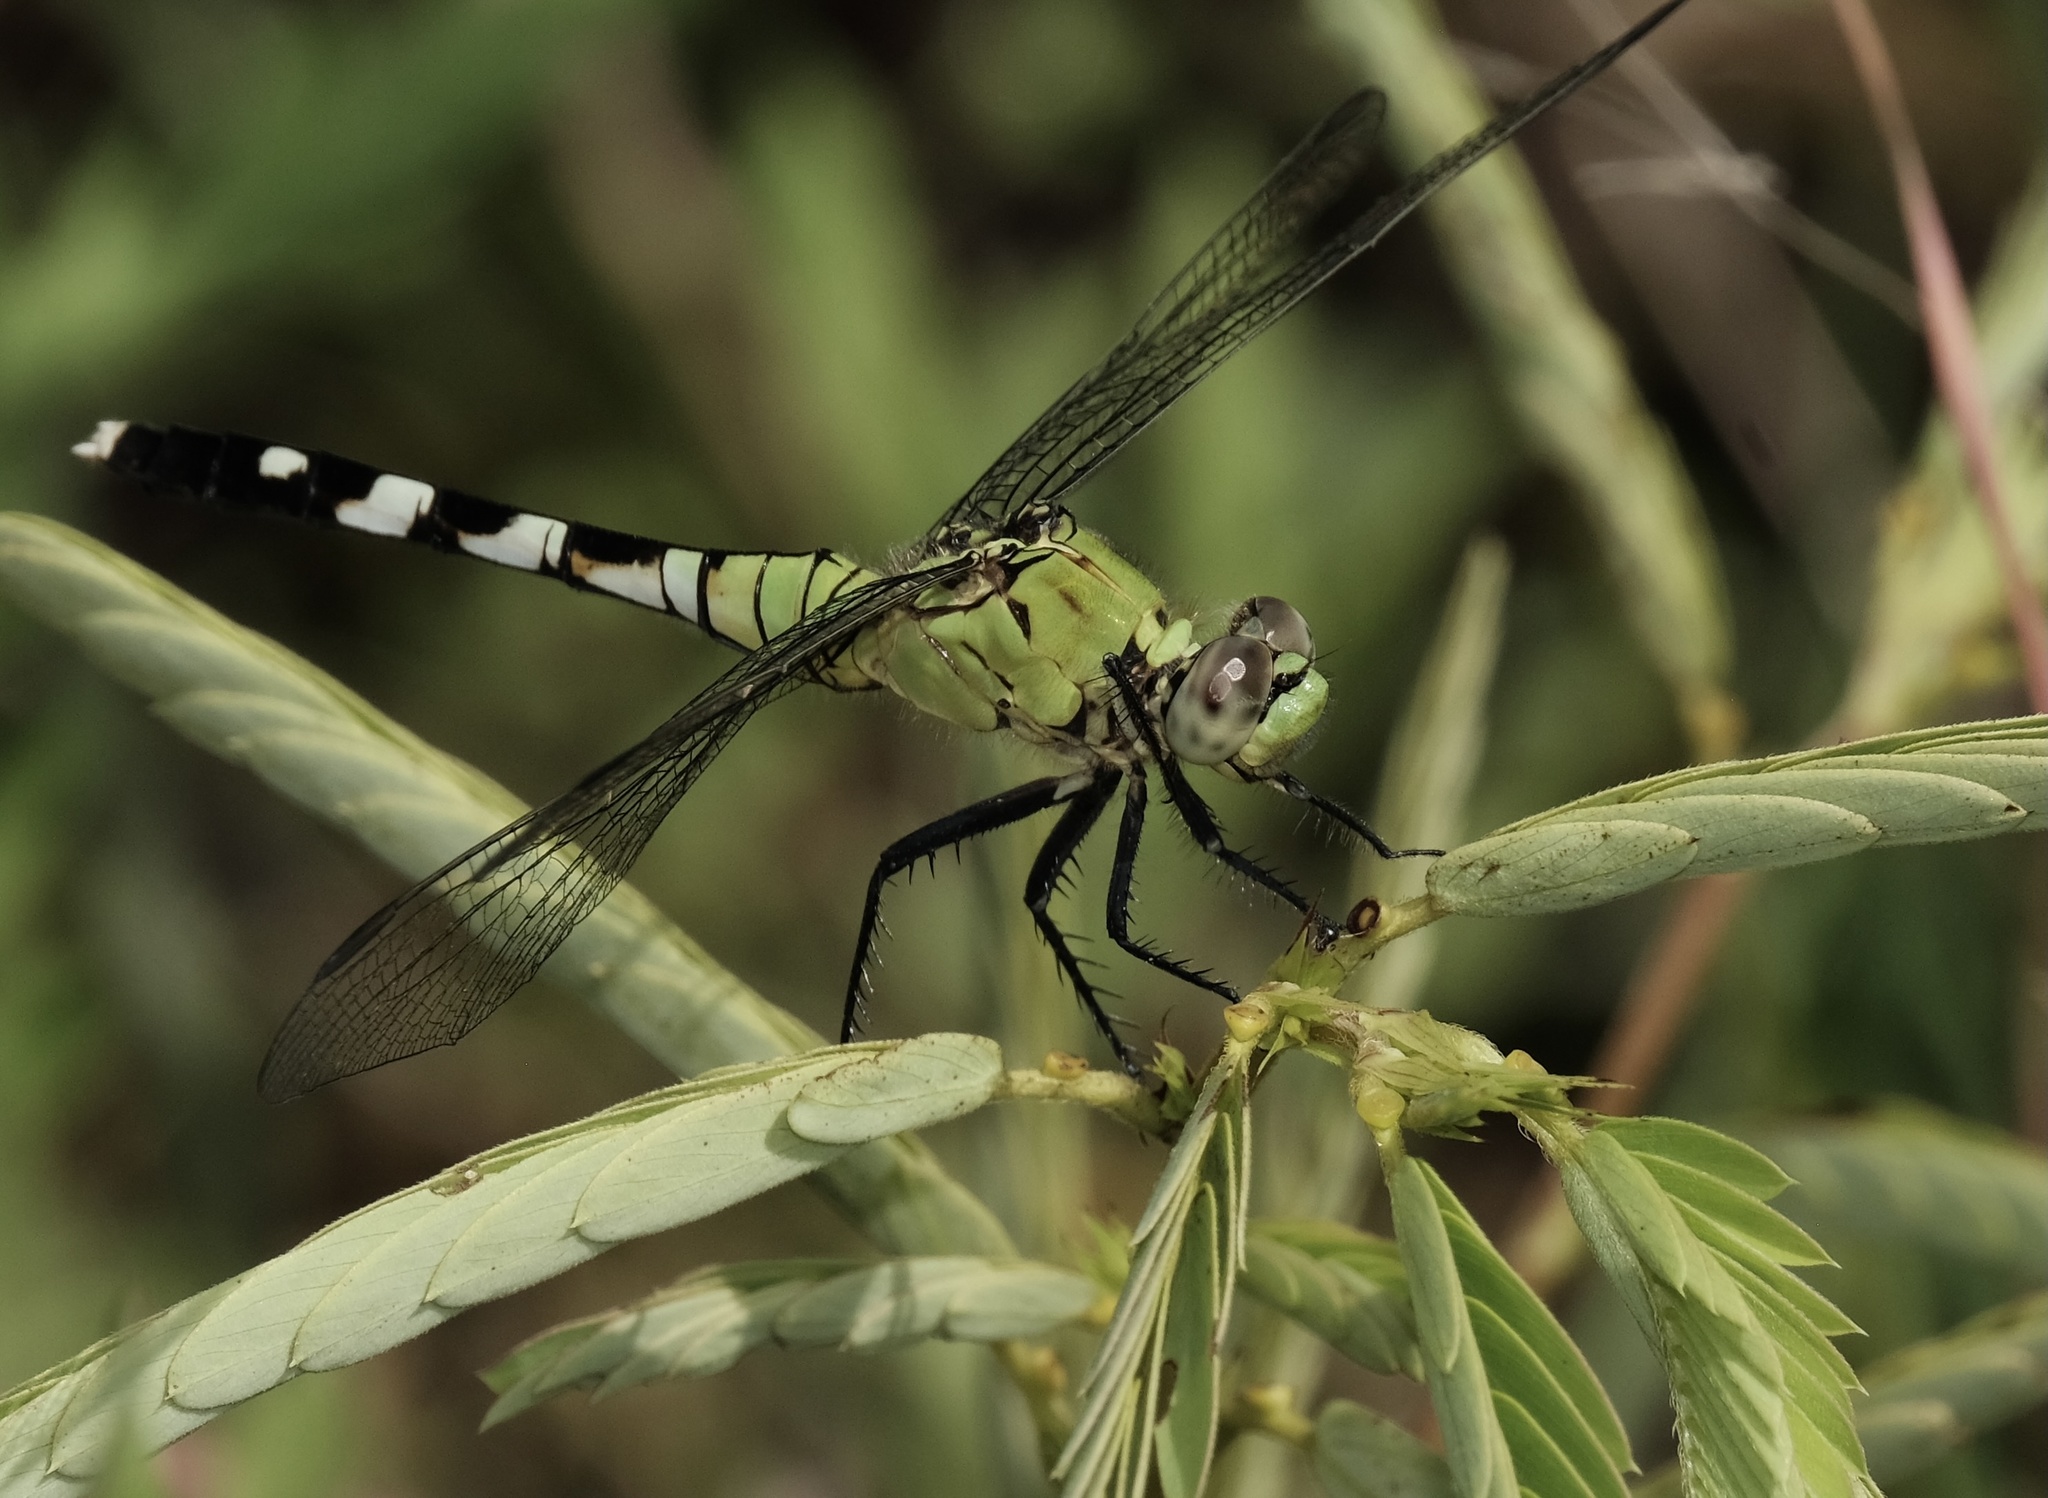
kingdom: Animalia
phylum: Arthropoda
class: Insecta
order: Odonata
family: Libellulidae
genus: Erythemis
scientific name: Erythemis simplicicollis
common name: Eastern pondhawk
